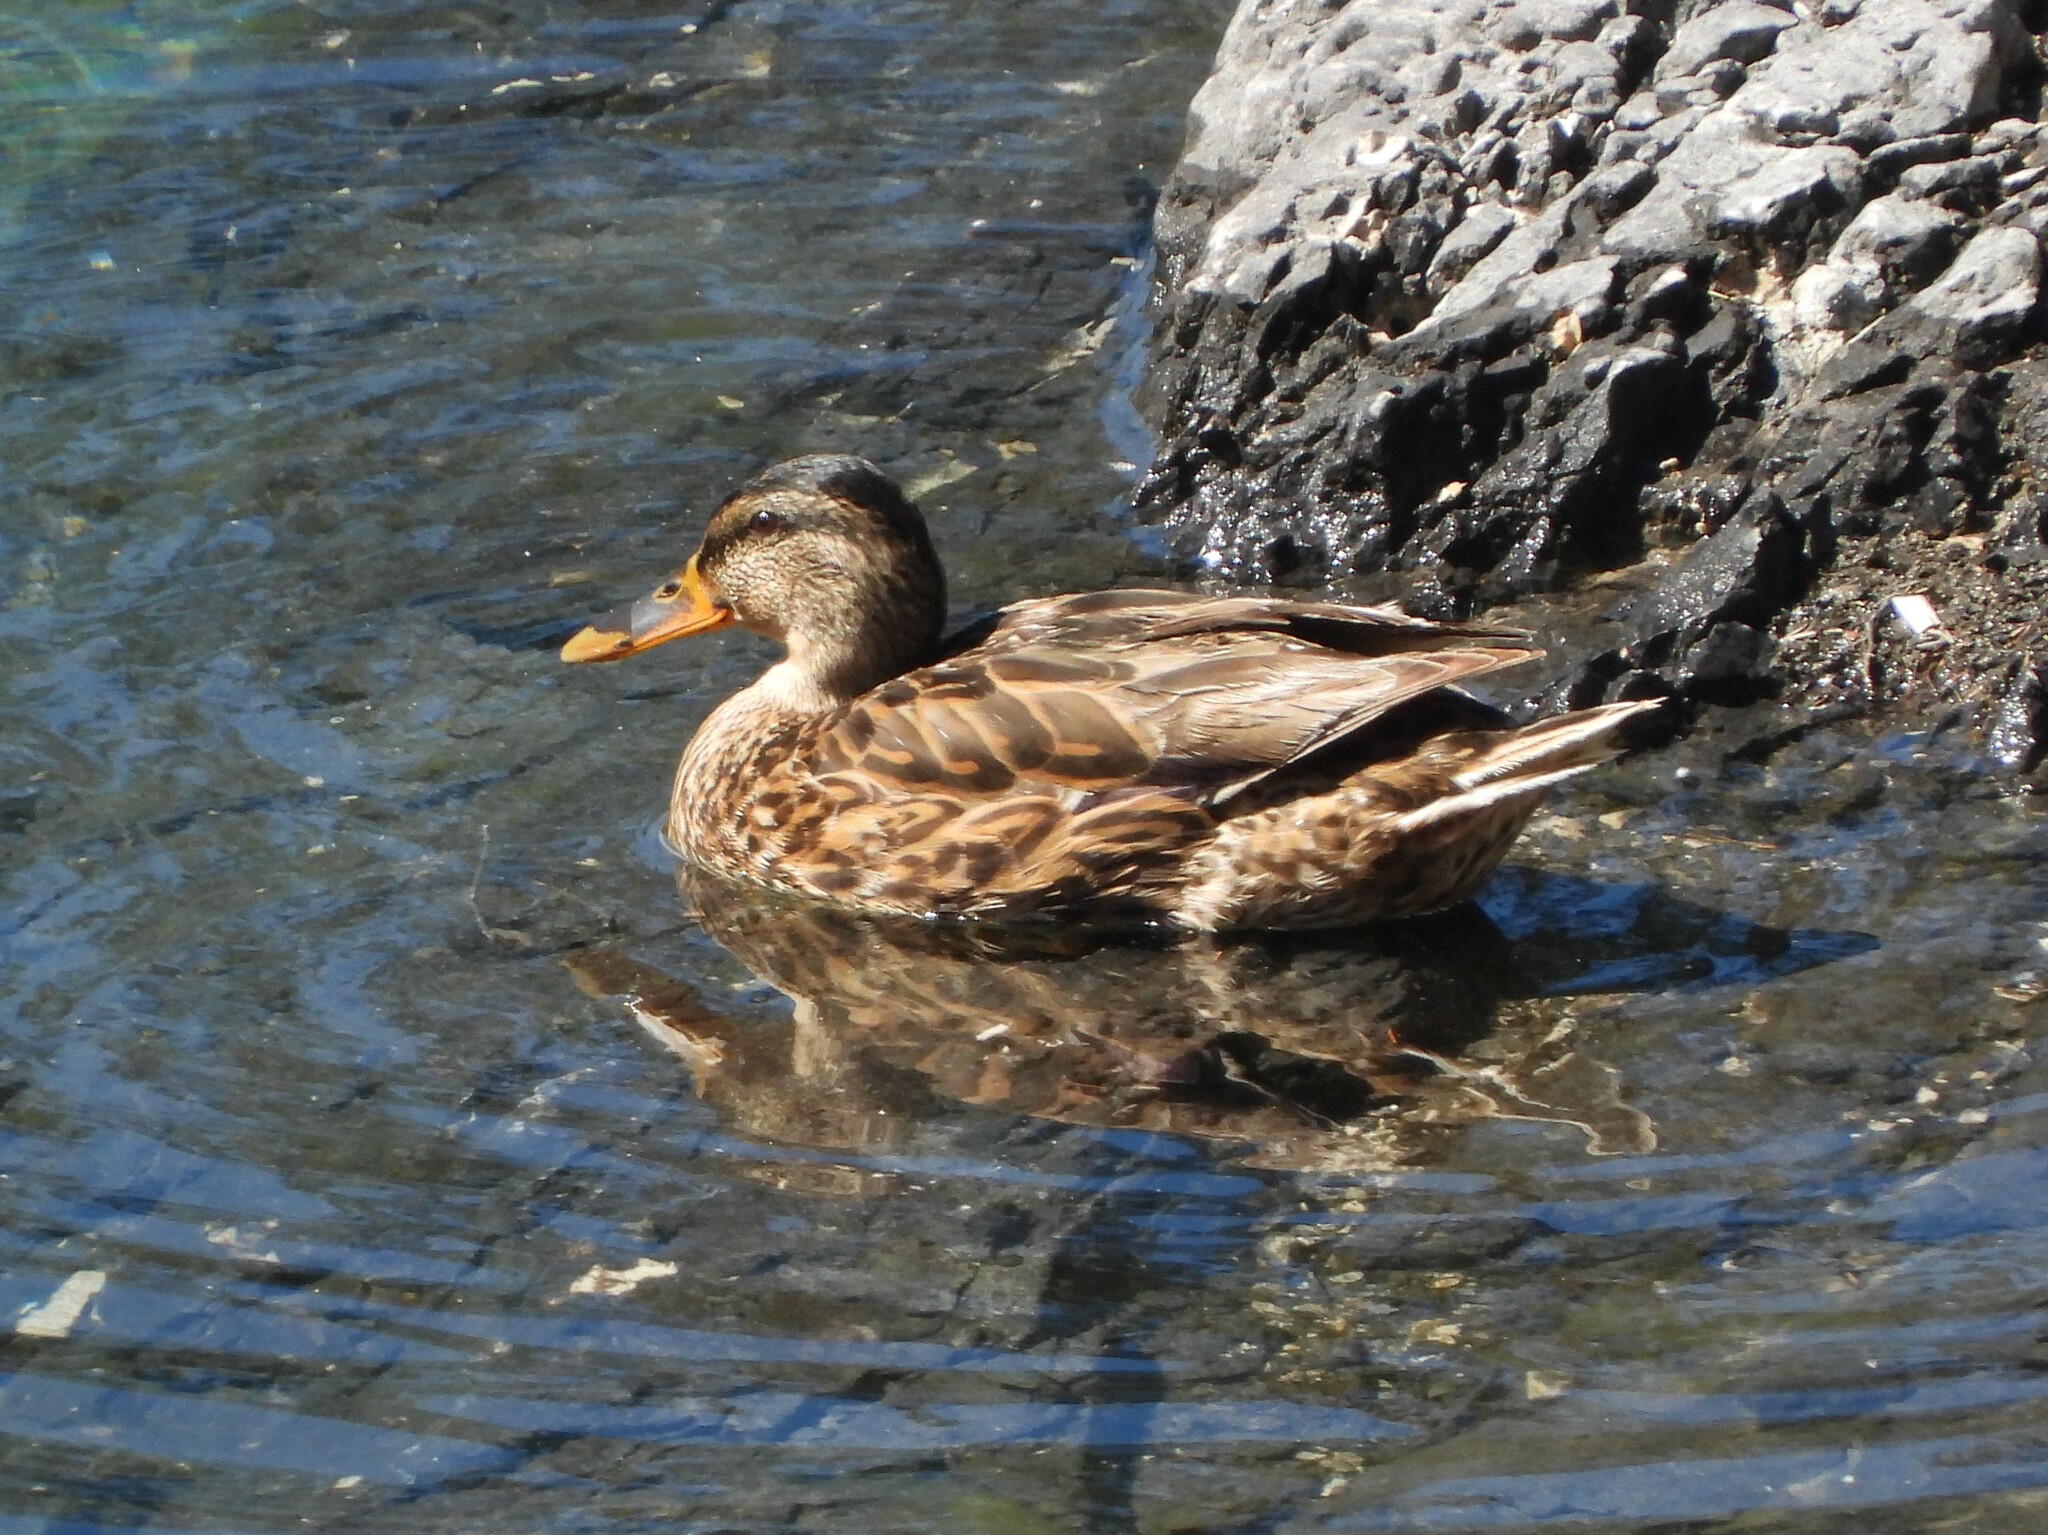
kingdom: Animalia
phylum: Chordata
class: Aves
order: Anseriformes
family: Anatidae
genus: Anas
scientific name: Anas platyrhynchos
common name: Mallard
